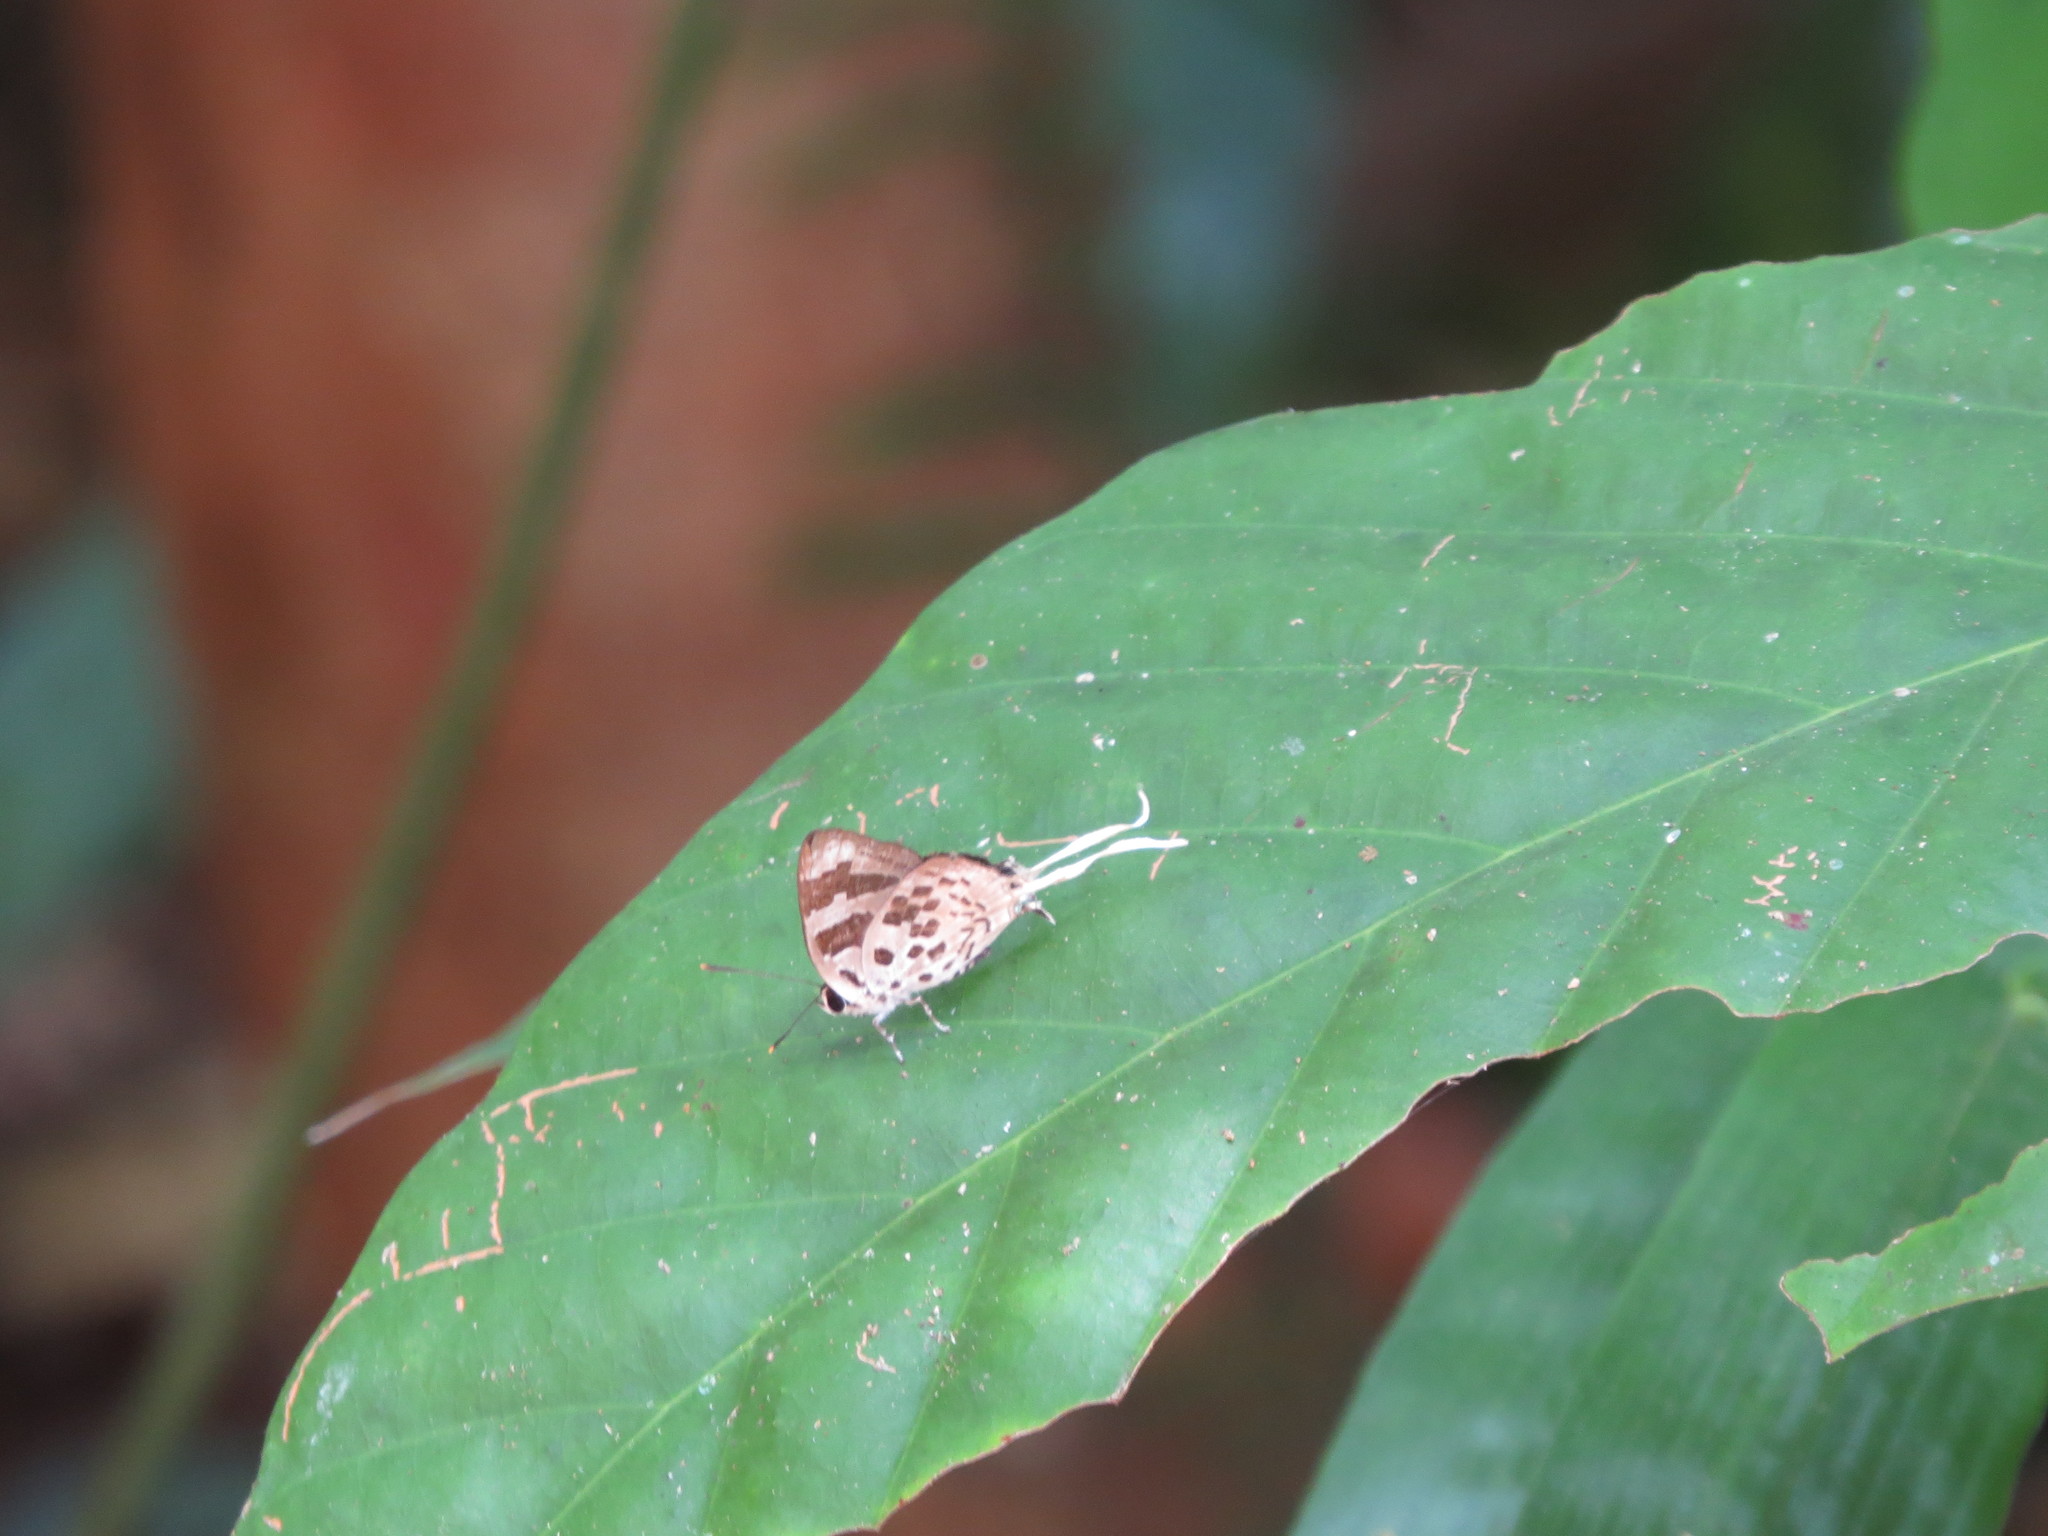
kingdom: Animalia
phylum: Arthropoda
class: Insecta
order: Lepidoptera
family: Lycaenidae
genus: Bindahara
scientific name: Bindahara phocides
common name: Sword-tailed flash
